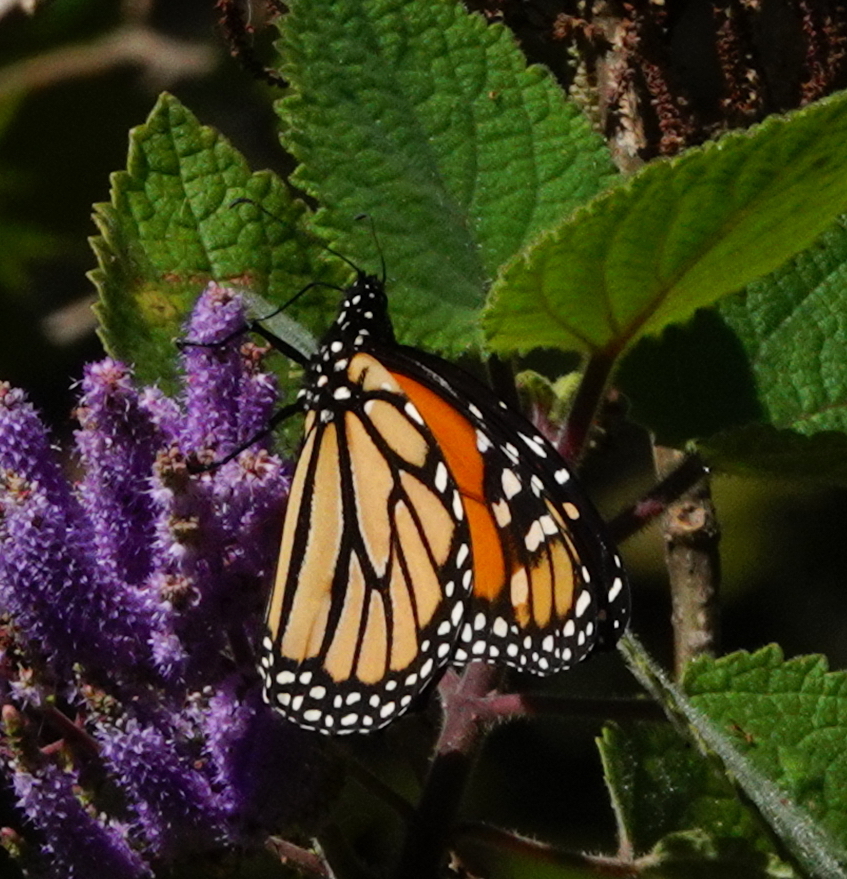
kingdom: Animalia
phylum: Arthropoda
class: Insecta
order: Lepidoptera
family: Nymphalidae
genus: Danaus
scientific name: Danaus plexippus
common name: Monarch
